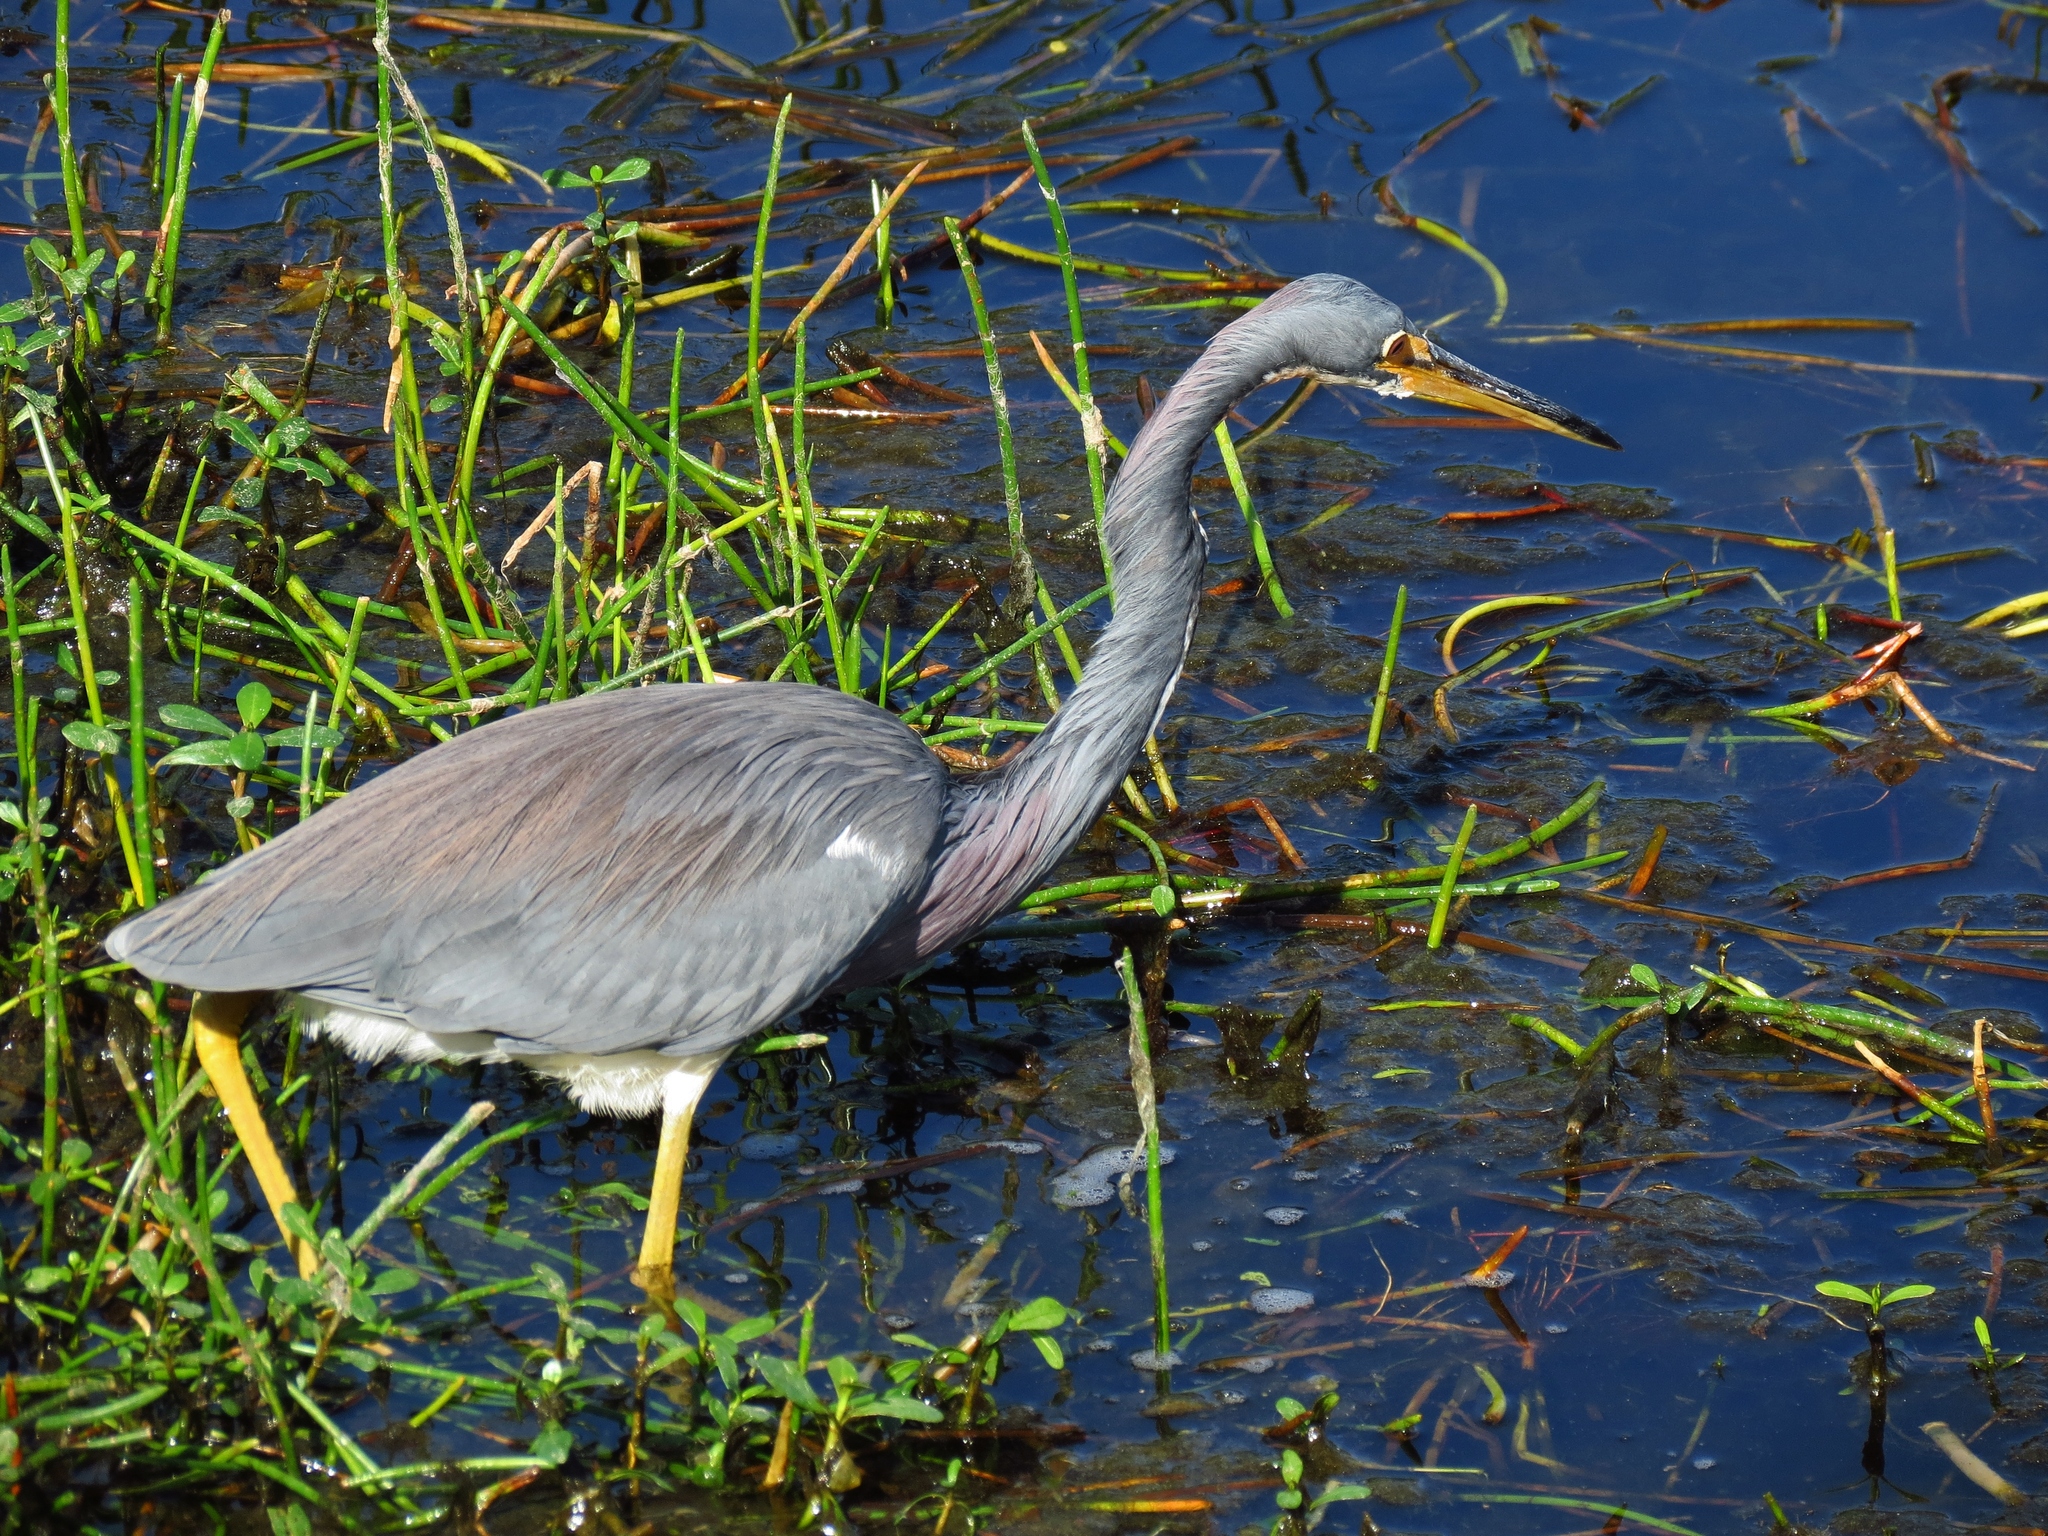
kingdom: Animalia
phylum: Chordata
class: Aves
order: Pelecaniformes
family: Ardeidae
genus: Egretta
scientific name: Egretta tricolor
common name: Tricolored heron
